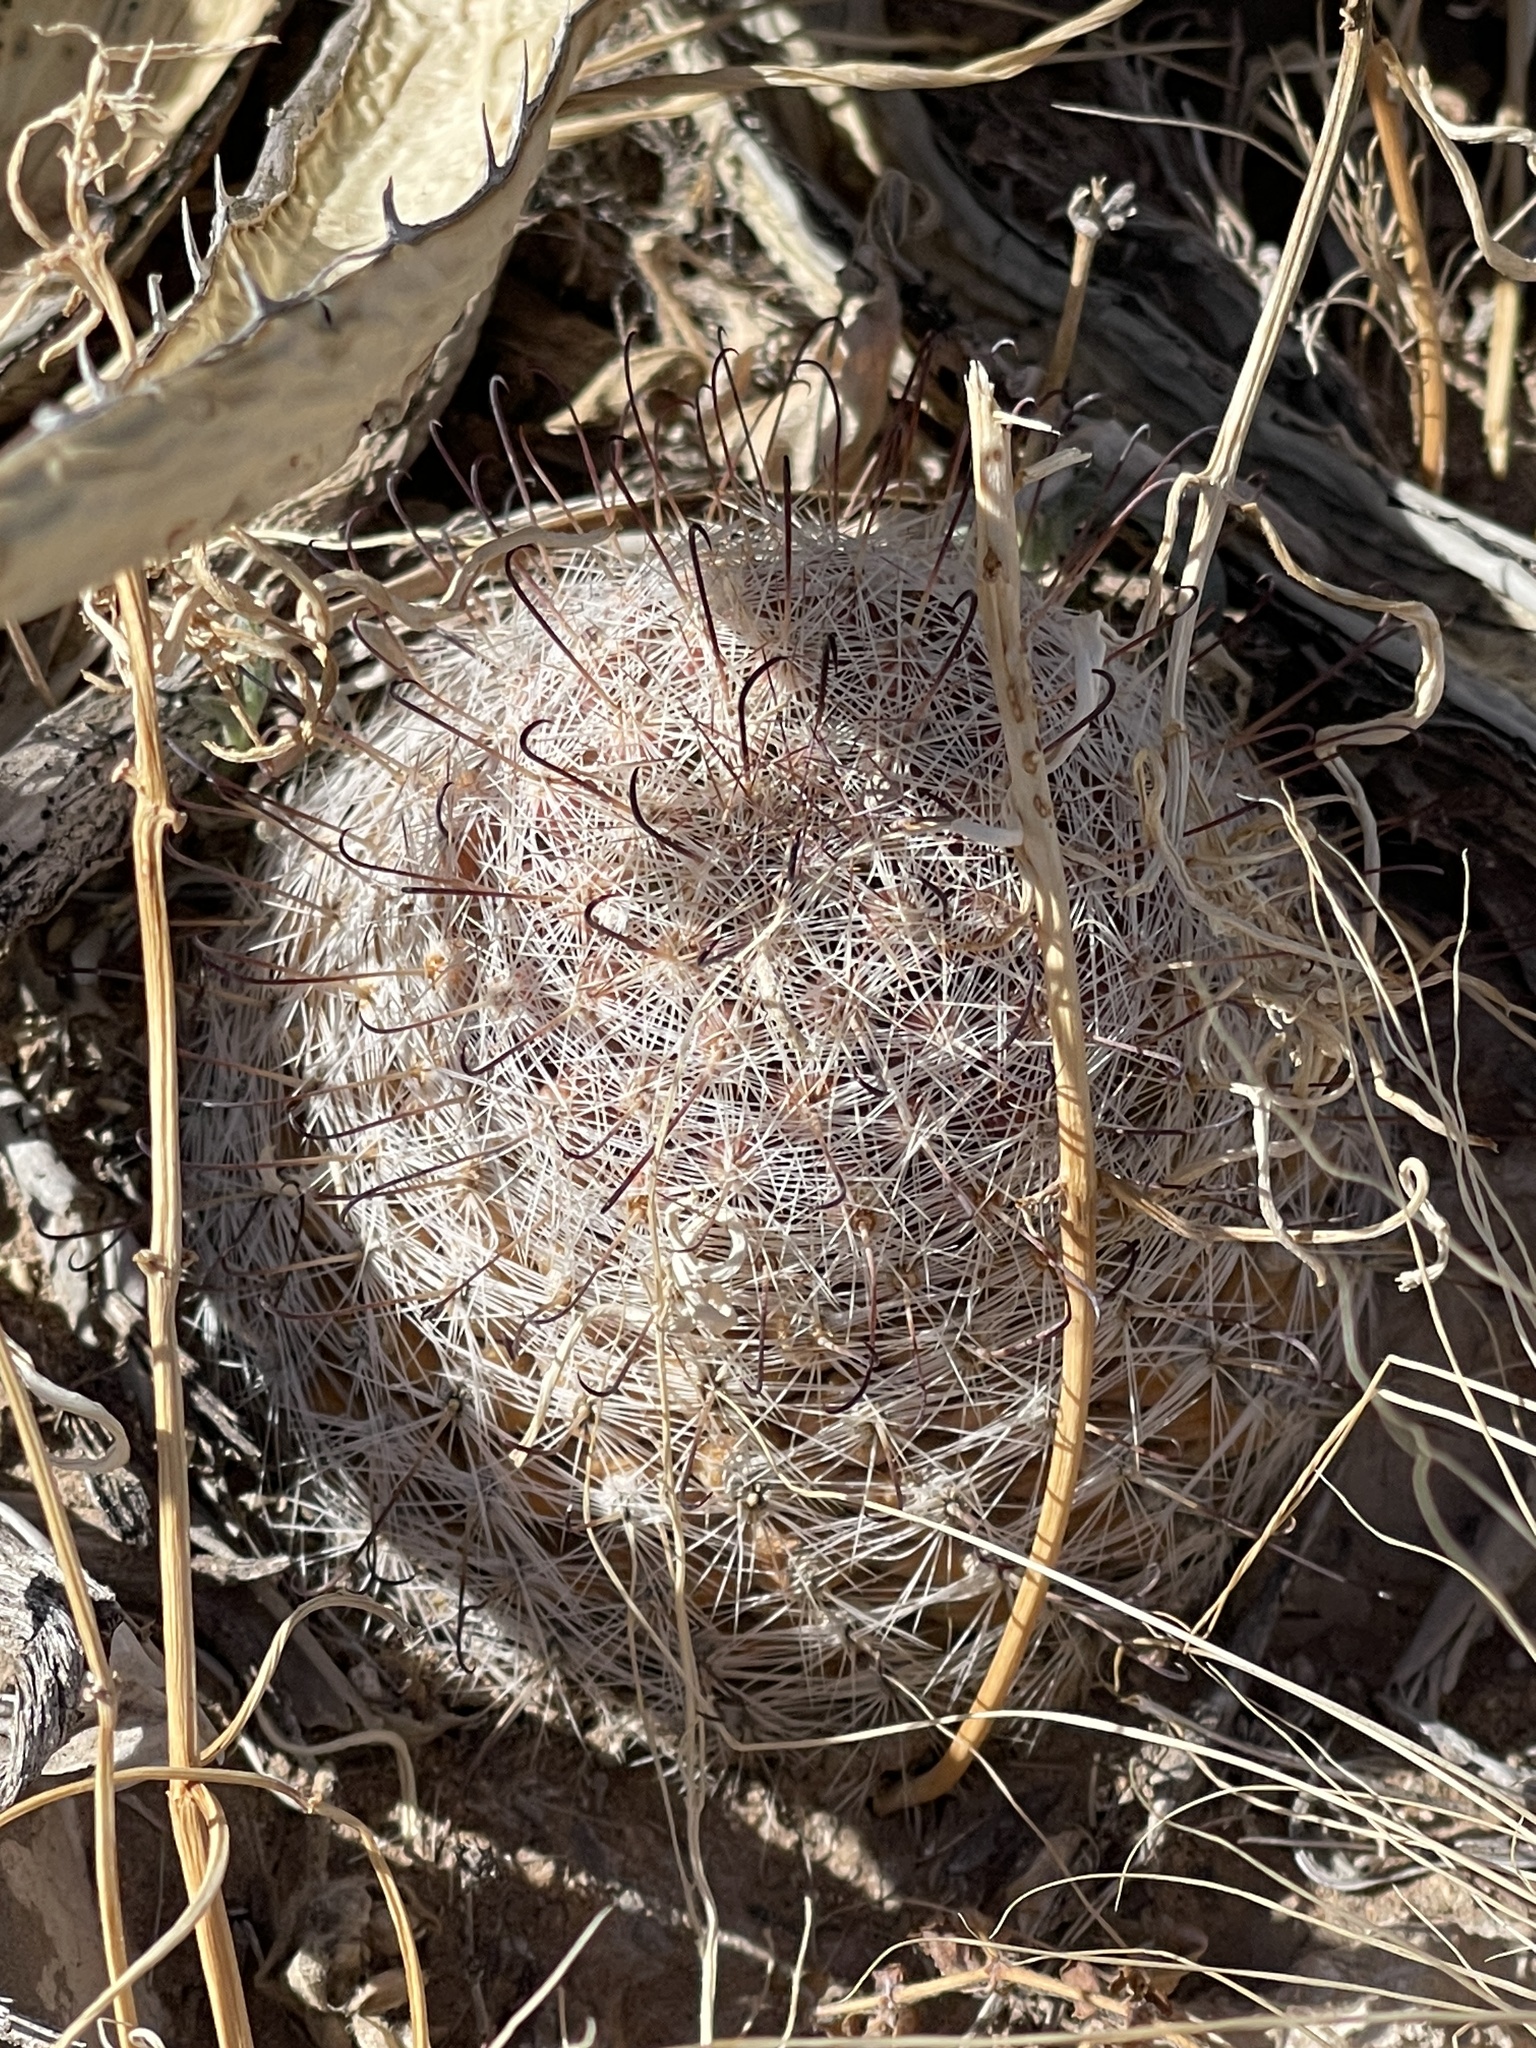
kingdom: Plantae
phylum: Tracheophyta
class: Magnoliopsida
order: Caryophyllales
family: Cactaceae
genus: Cochemiea
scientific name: Cochemiea grahamii
